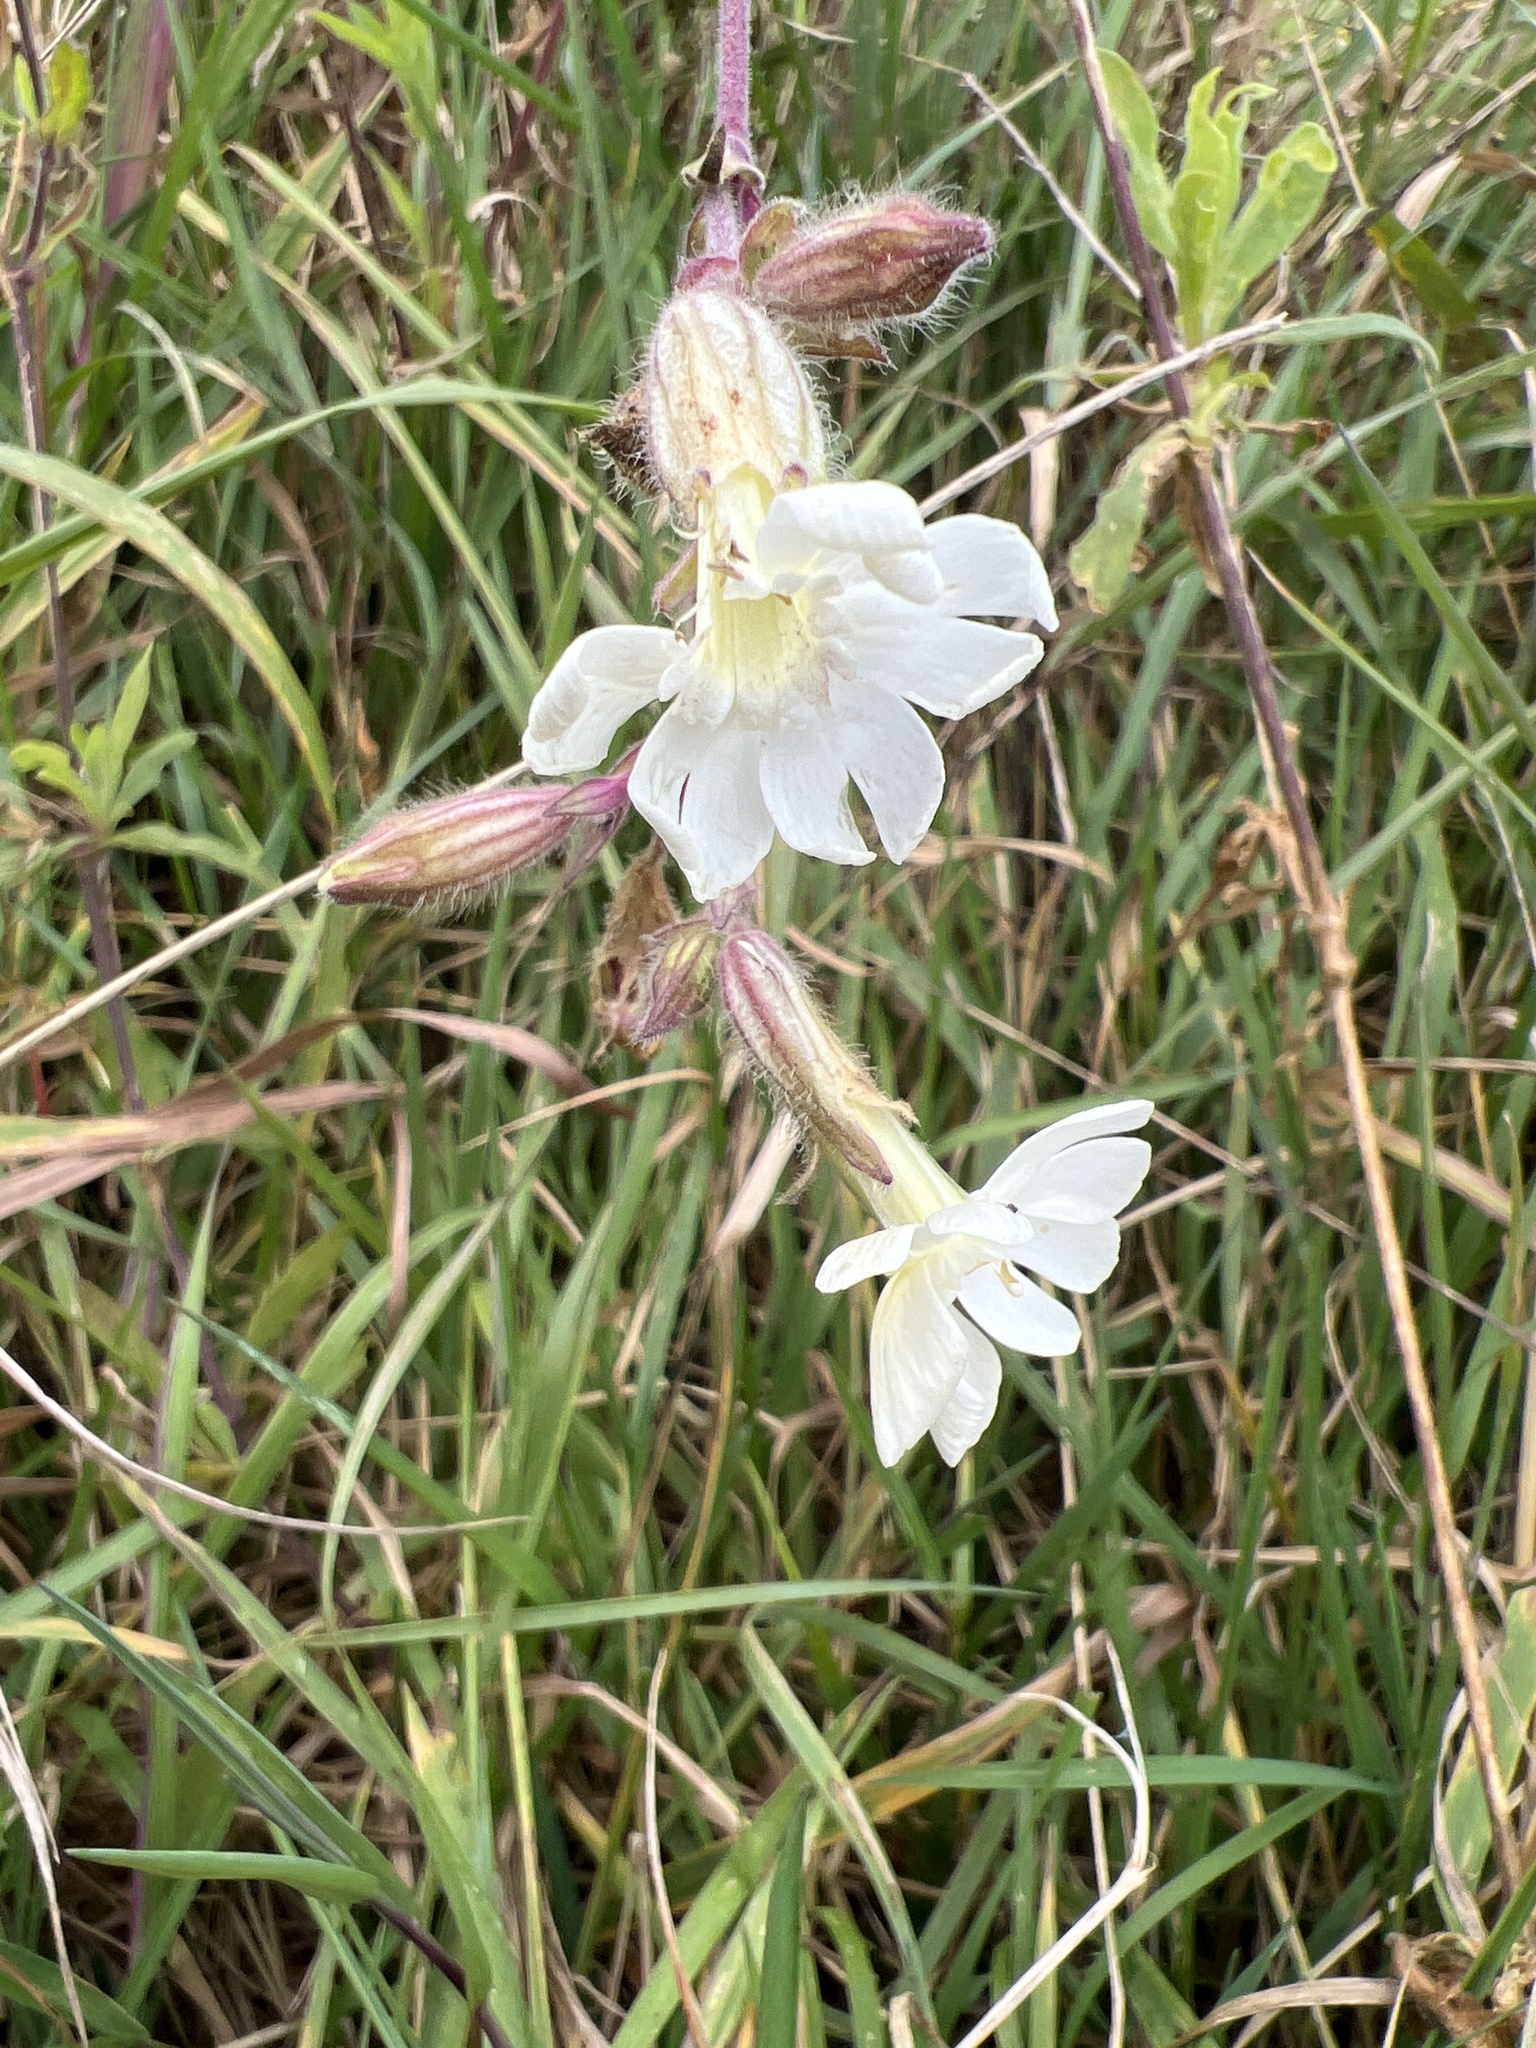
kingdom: Plantae
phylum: Tracheophyta
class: Magnoliopsida
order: Caryophyllales
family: Caryophyllaceae
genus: Silene
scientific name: Silene latifolia
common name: White campion
